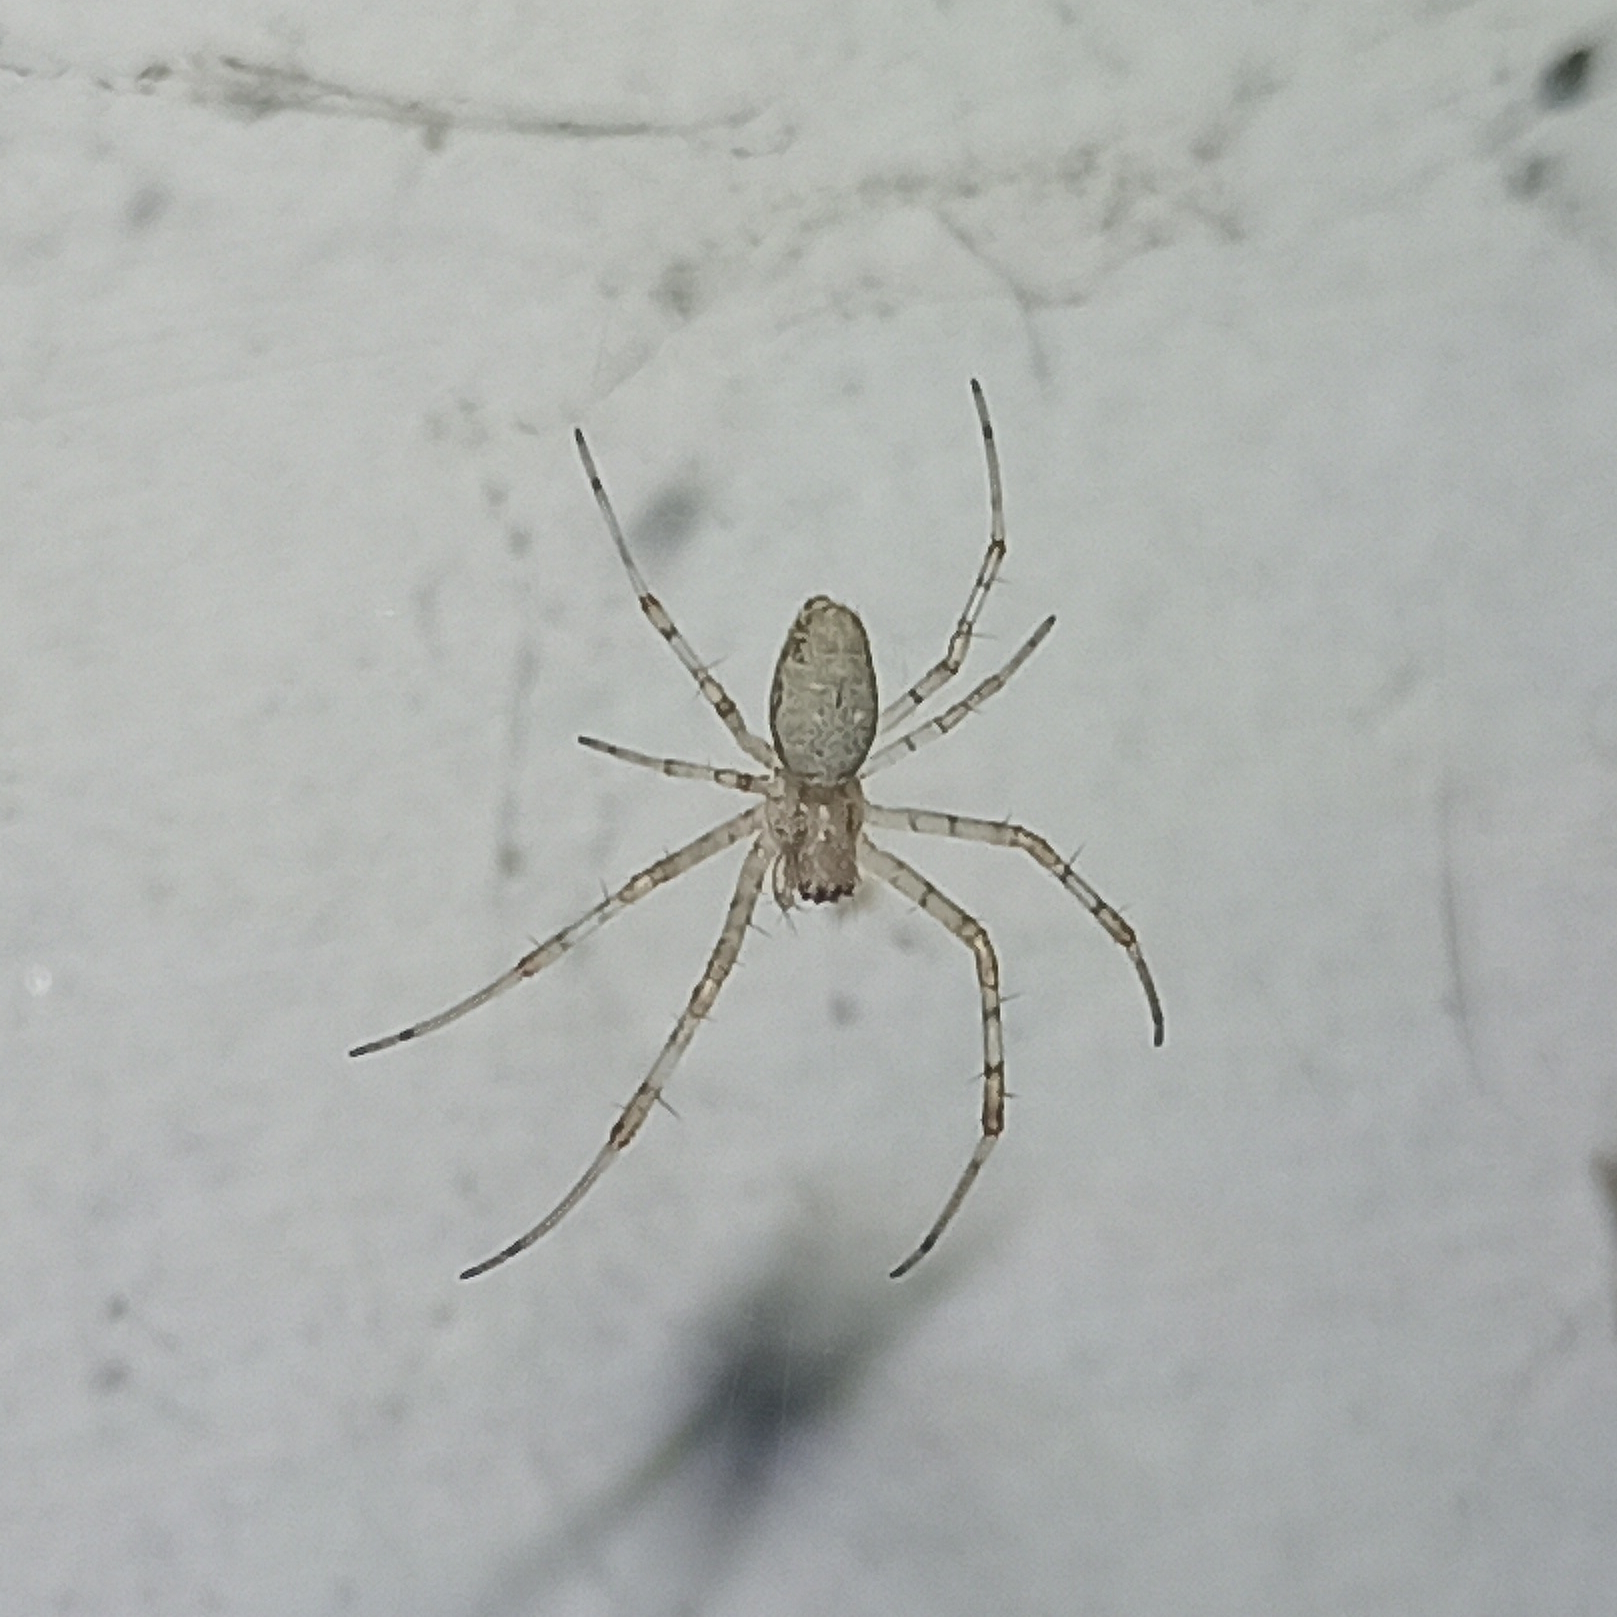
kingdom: Animalia
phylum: Arthropoda
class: Arachnida
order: Araneae
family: Araneidae
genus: Nephilingis
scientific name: Nephilingis cruentata
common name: African hermit spider
